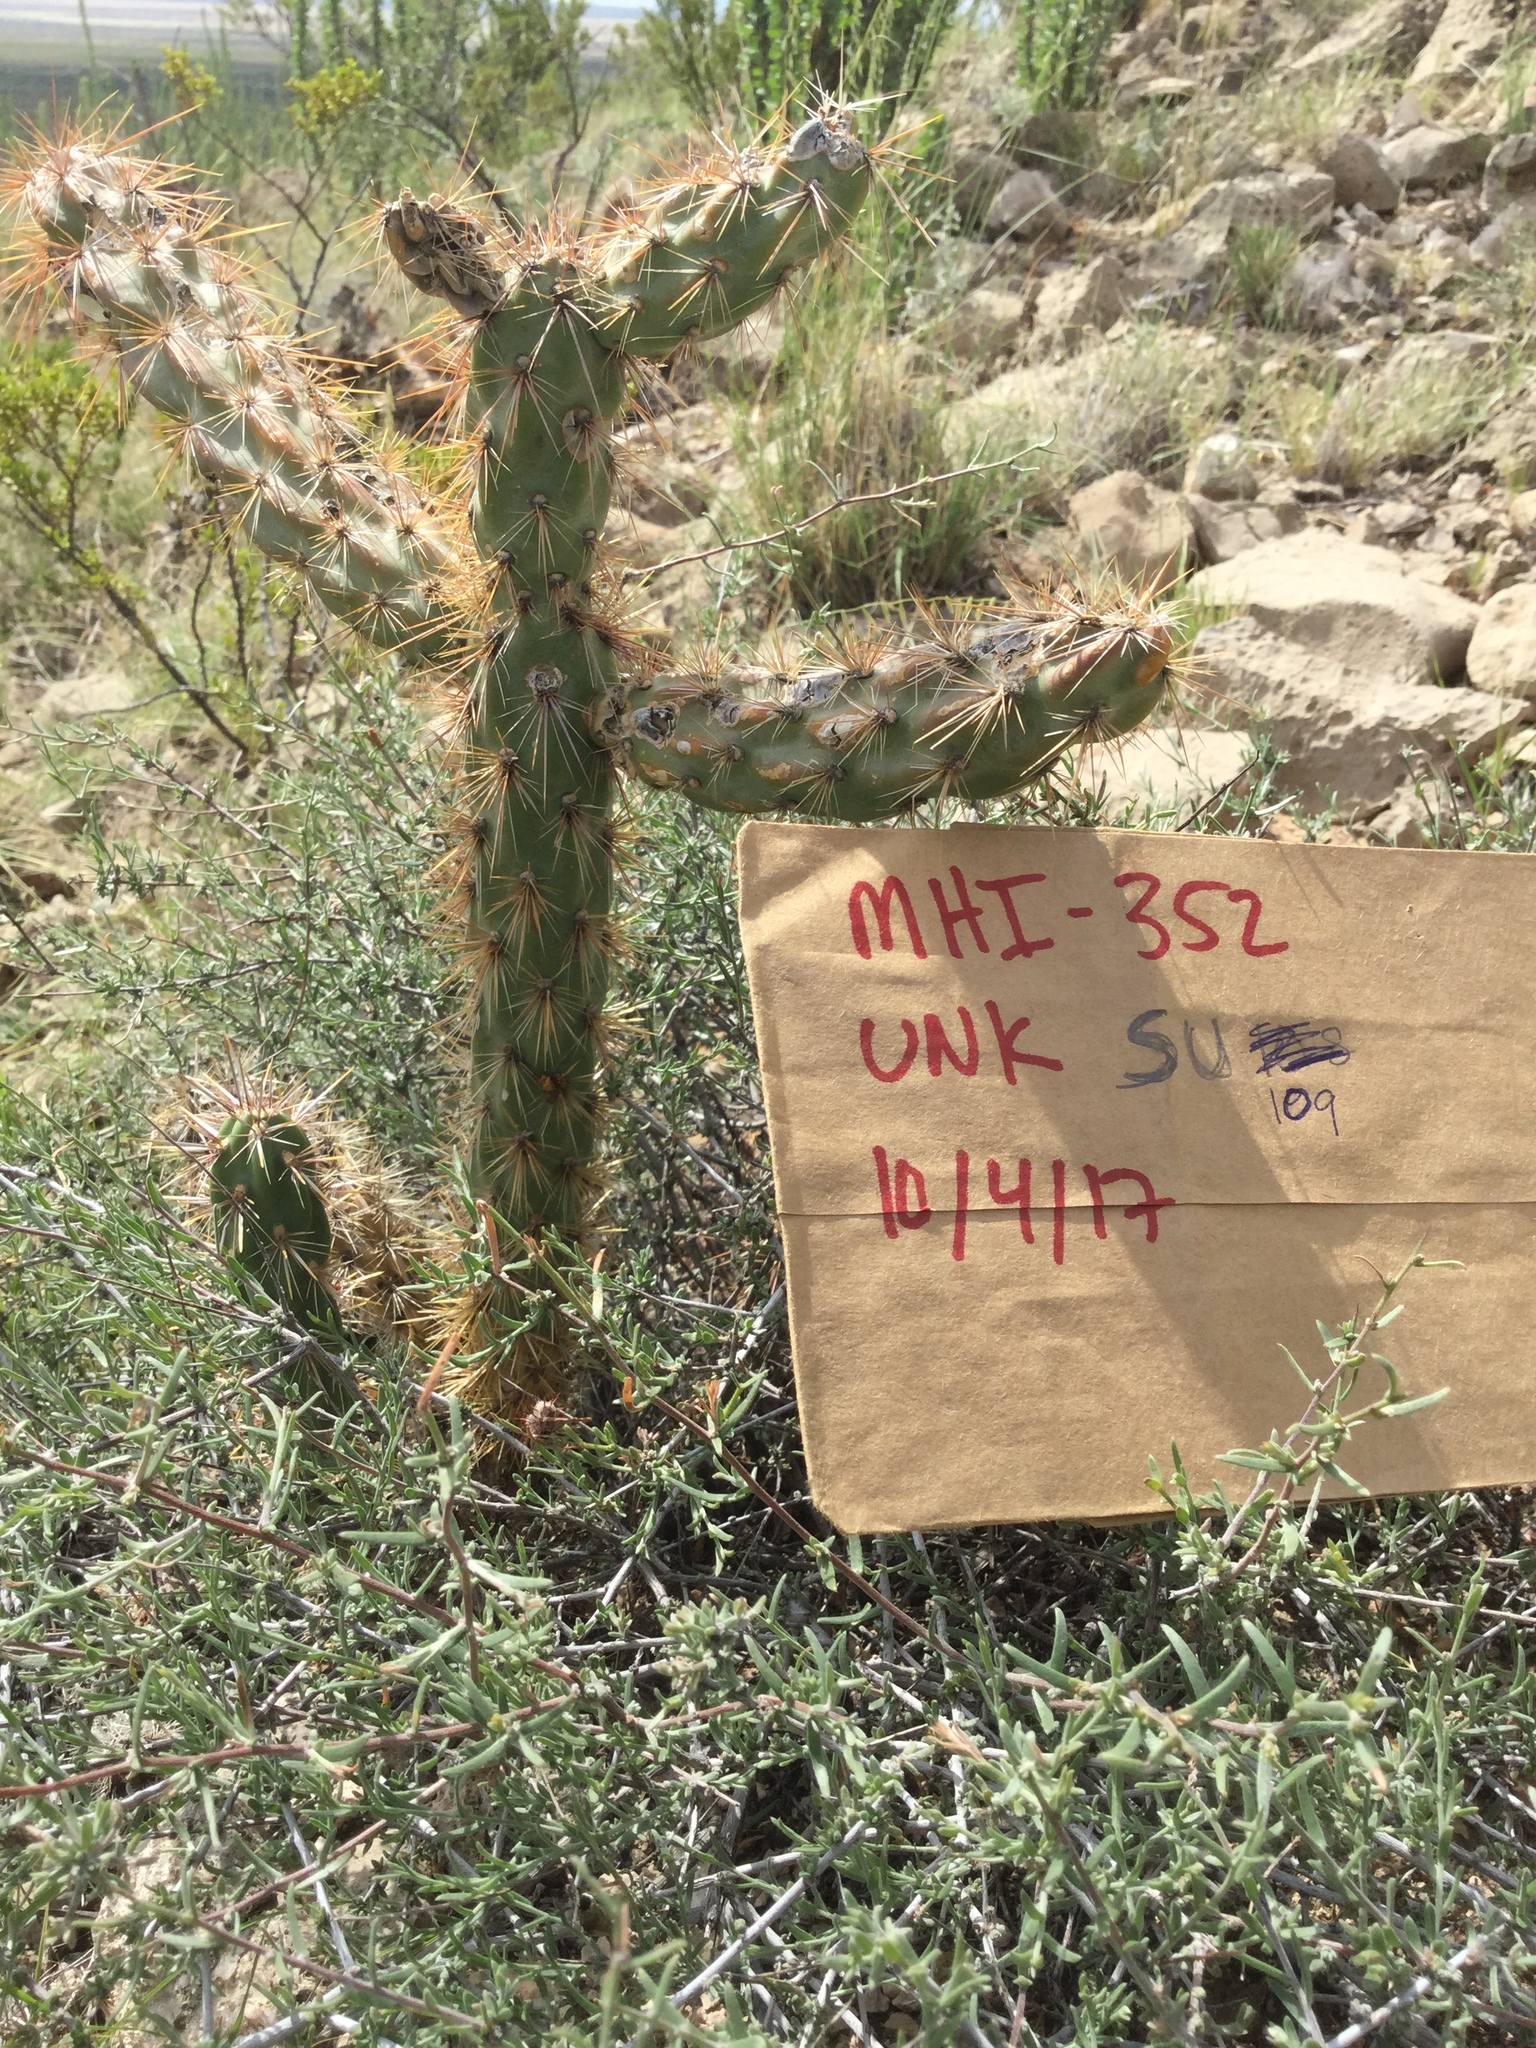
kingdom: Plantae
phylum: Tracheophyta
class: Magnoliopsida
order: Caryophyllales
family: Cactaceae
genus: Cylindropuntia
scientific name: Cylindropuntia imbricata
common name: Candelabrum cactus
